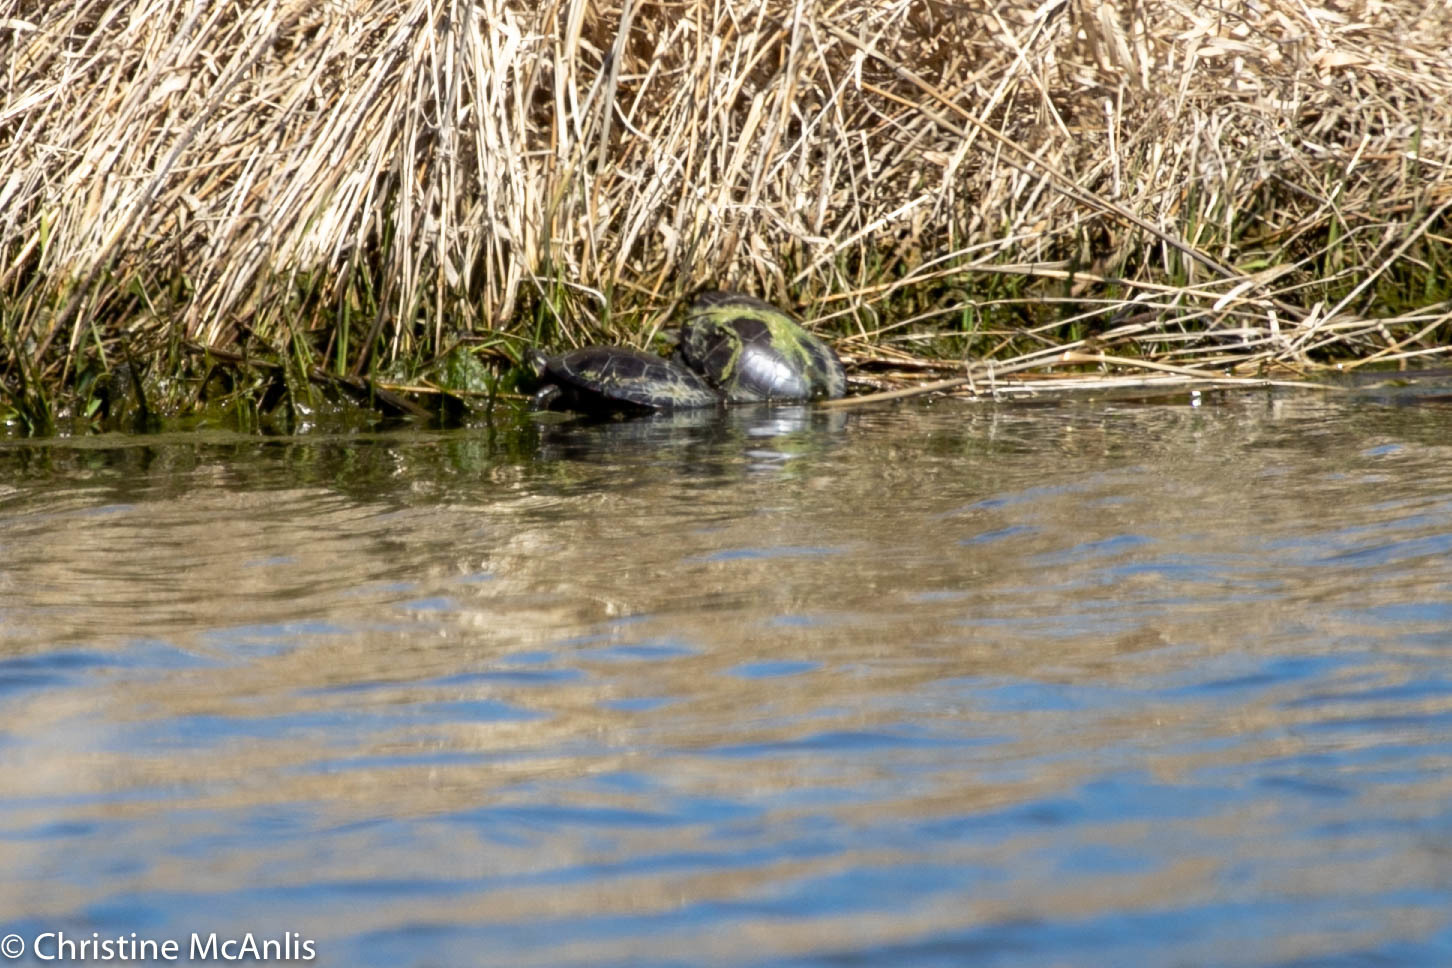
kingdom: Animalia
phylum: Chordata
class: Testudines
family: Emydidae
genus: Chrysemys
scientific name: Chrysemys picta
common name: Painted turtle
